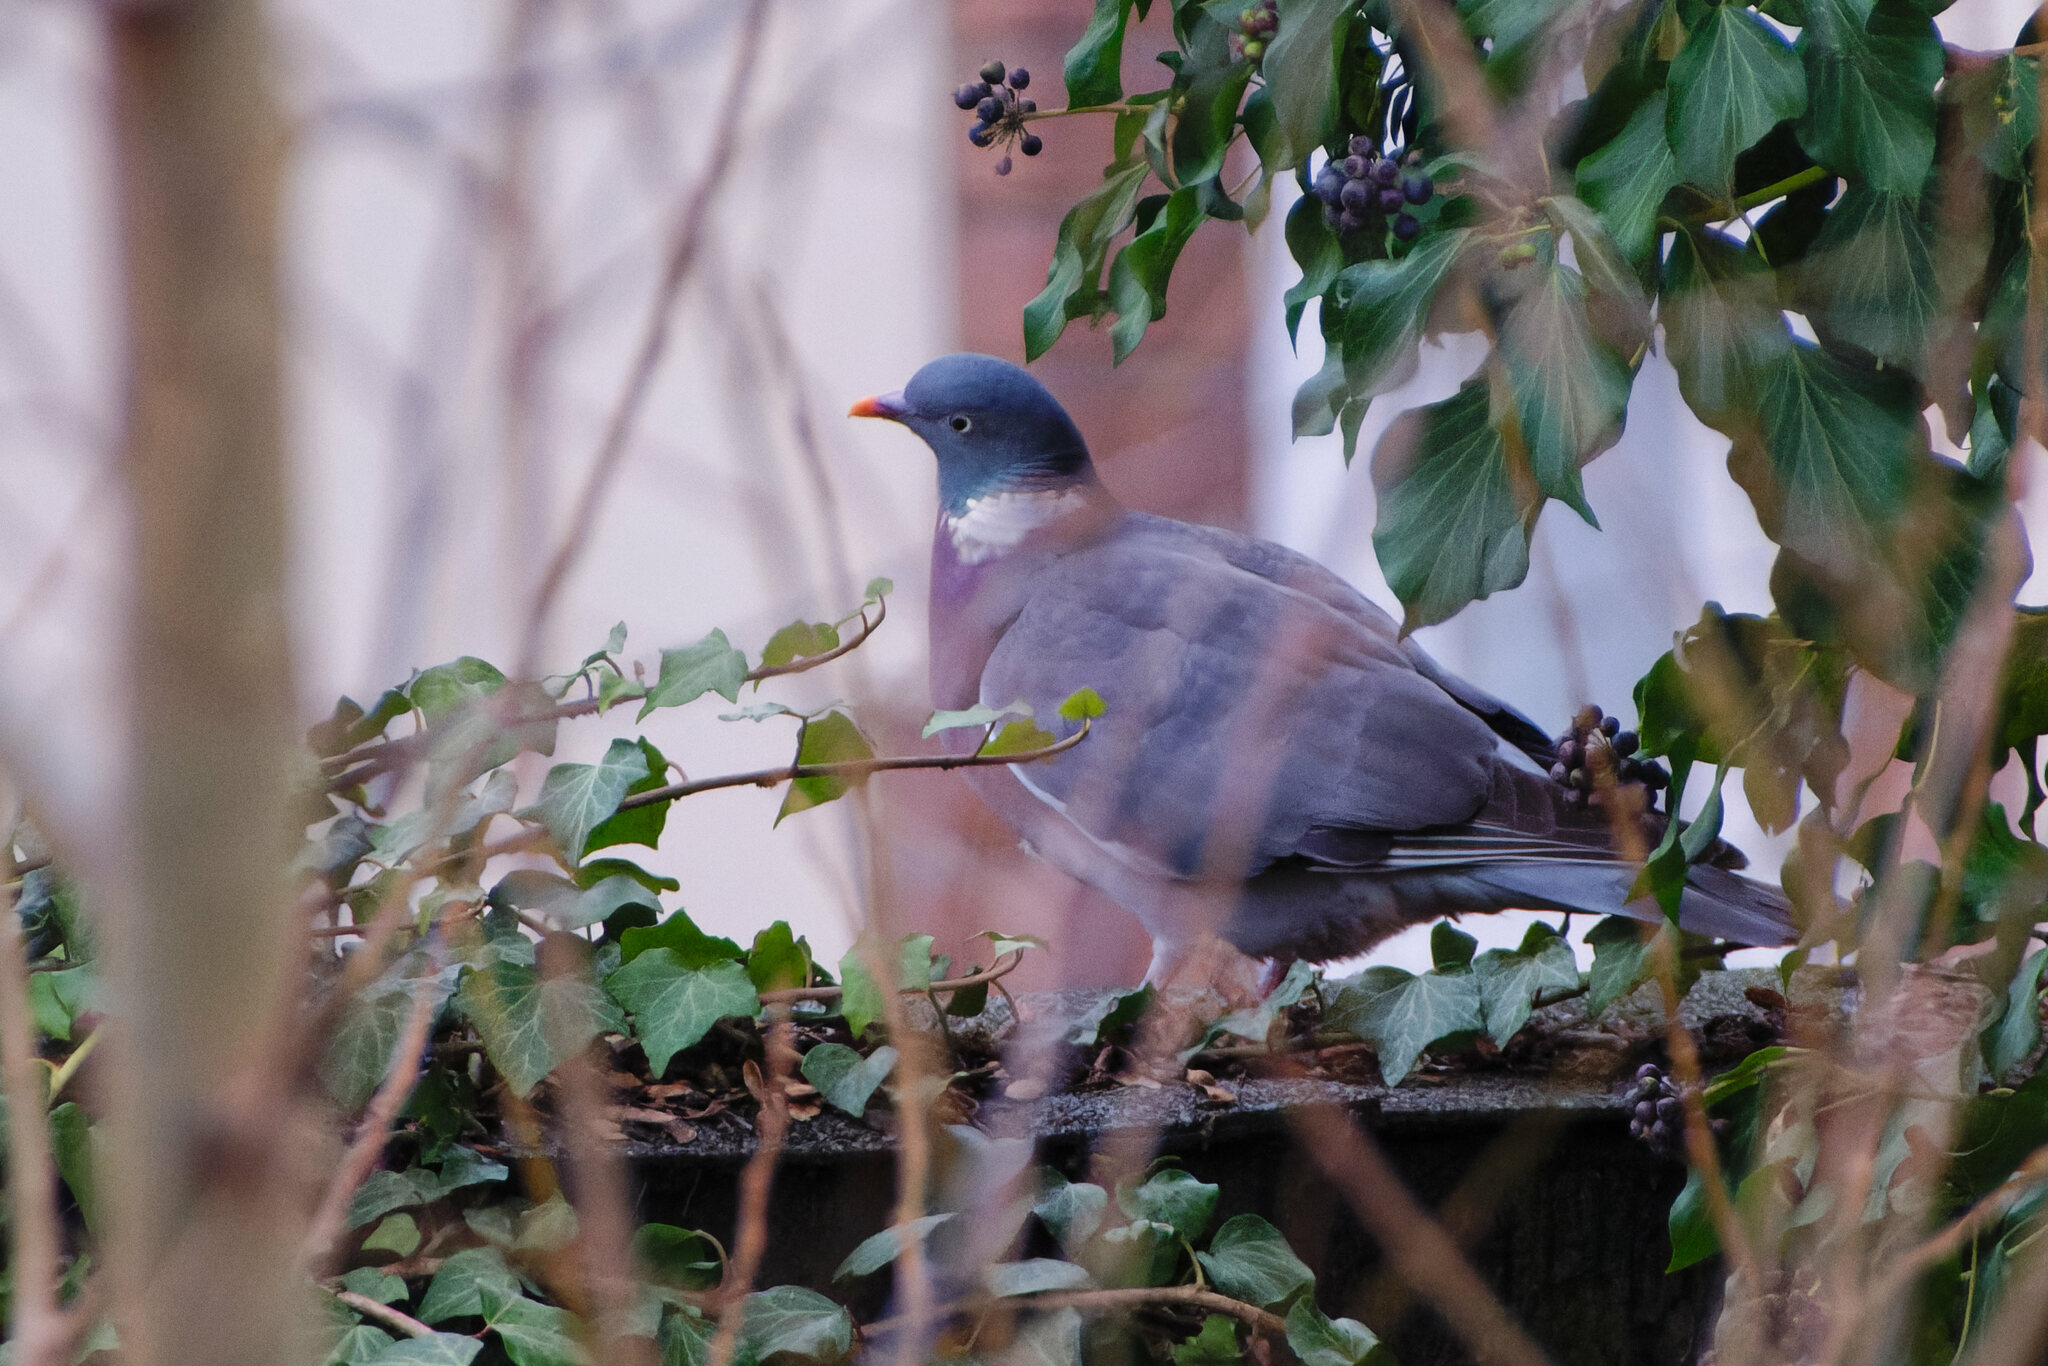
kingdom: Animalia
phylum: Chordata
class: Aves
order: Columbiformes
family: Columbidae
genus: Columba
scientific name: Columba palumbus
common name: Common wood pigeon
